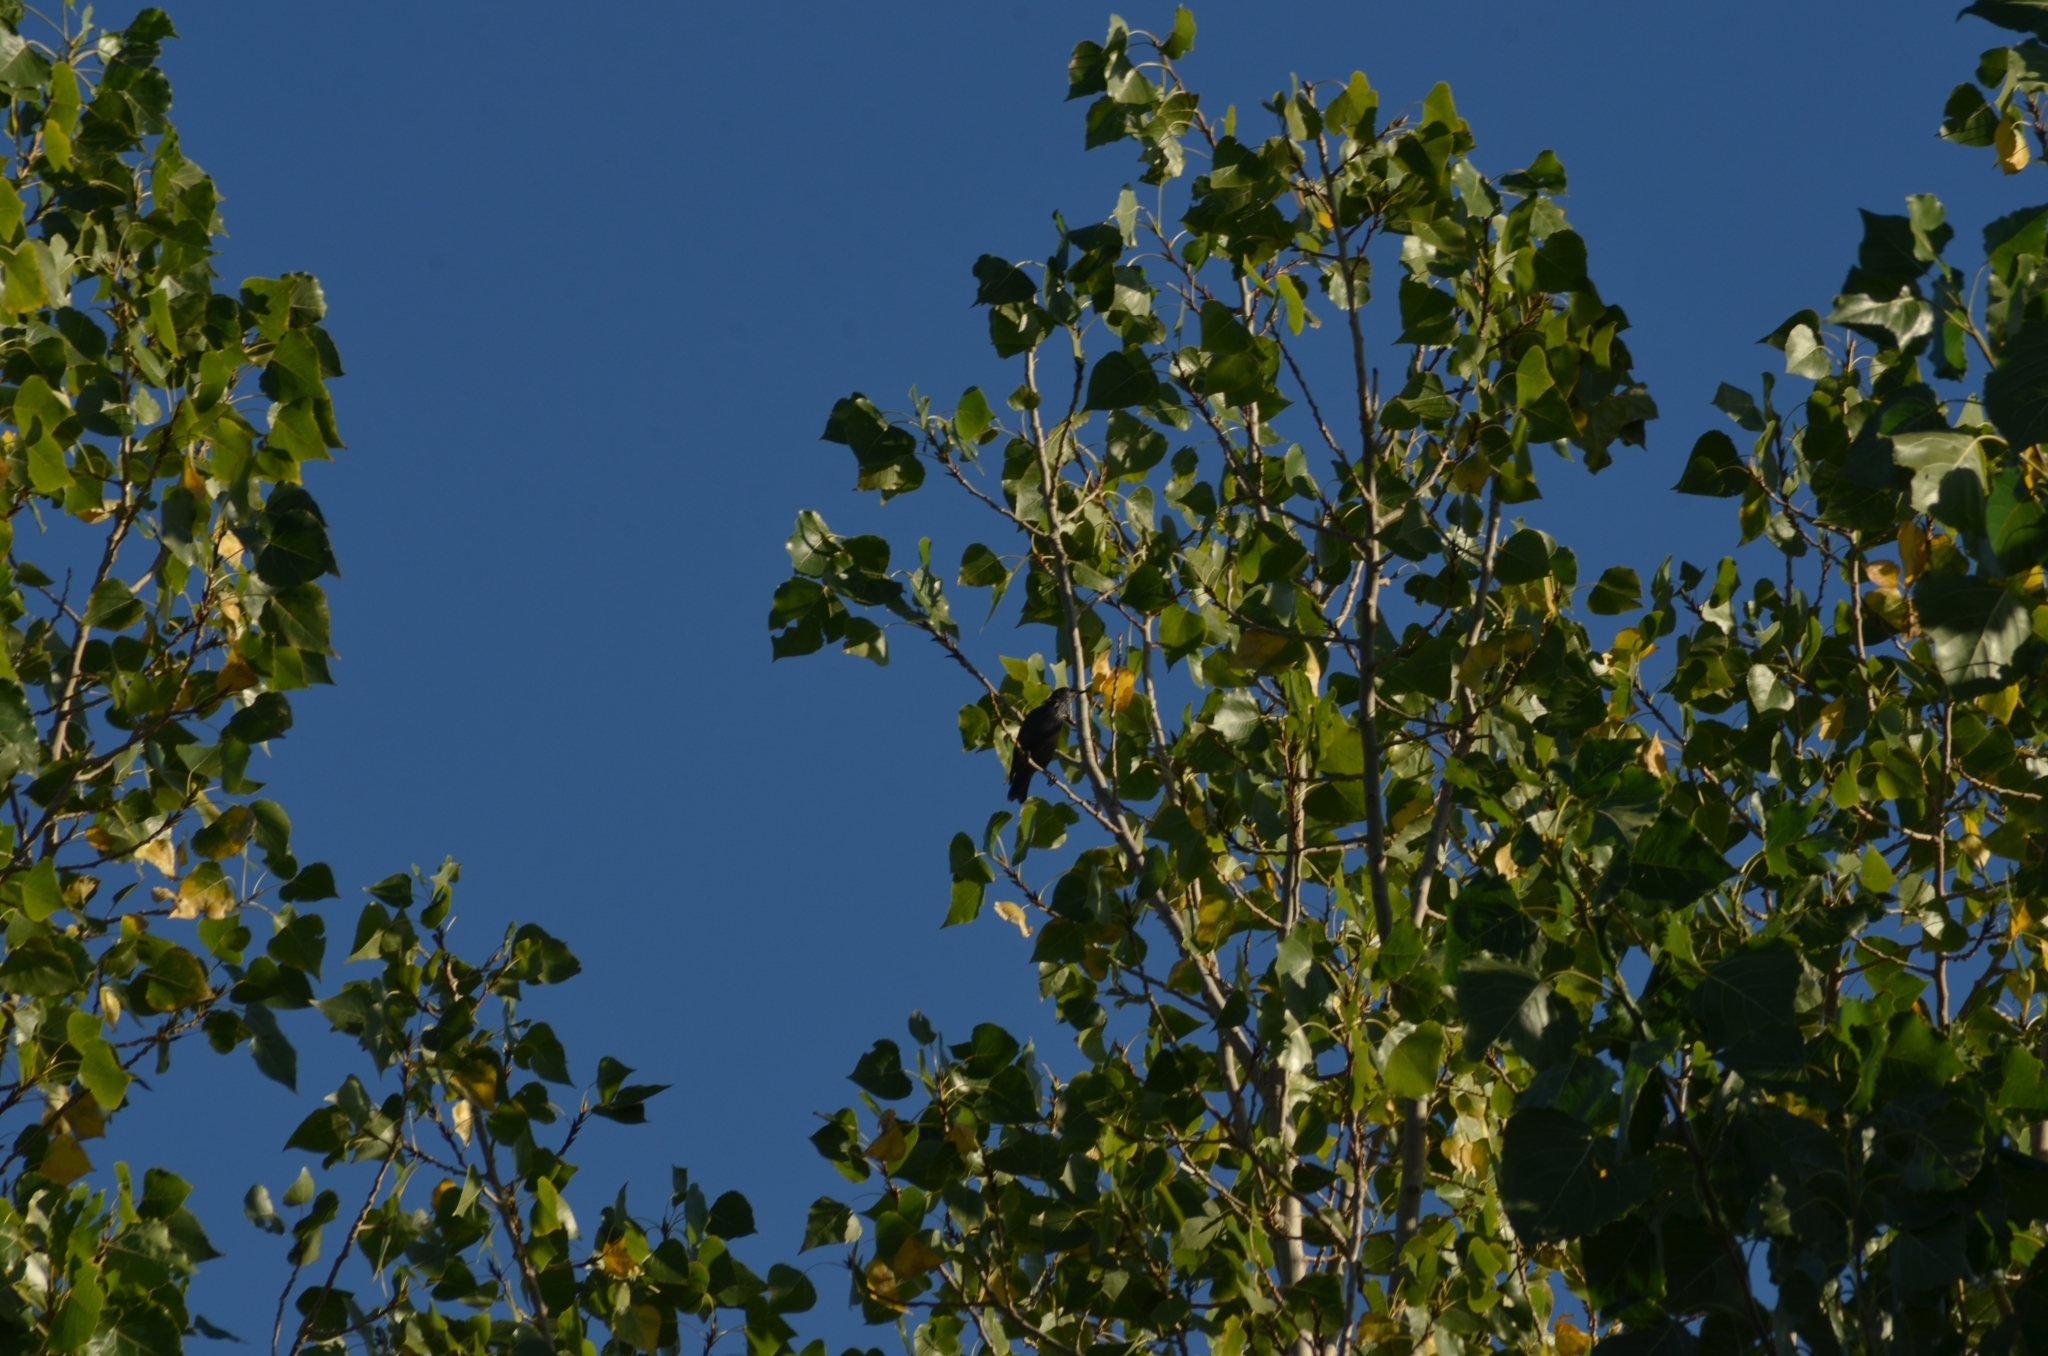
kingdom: Animalia
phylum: Chordata
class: Aves
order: Passeriformes
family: Sturnidae
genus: Sturnus
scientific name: Sturnus unicolor
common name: Spotless starling
